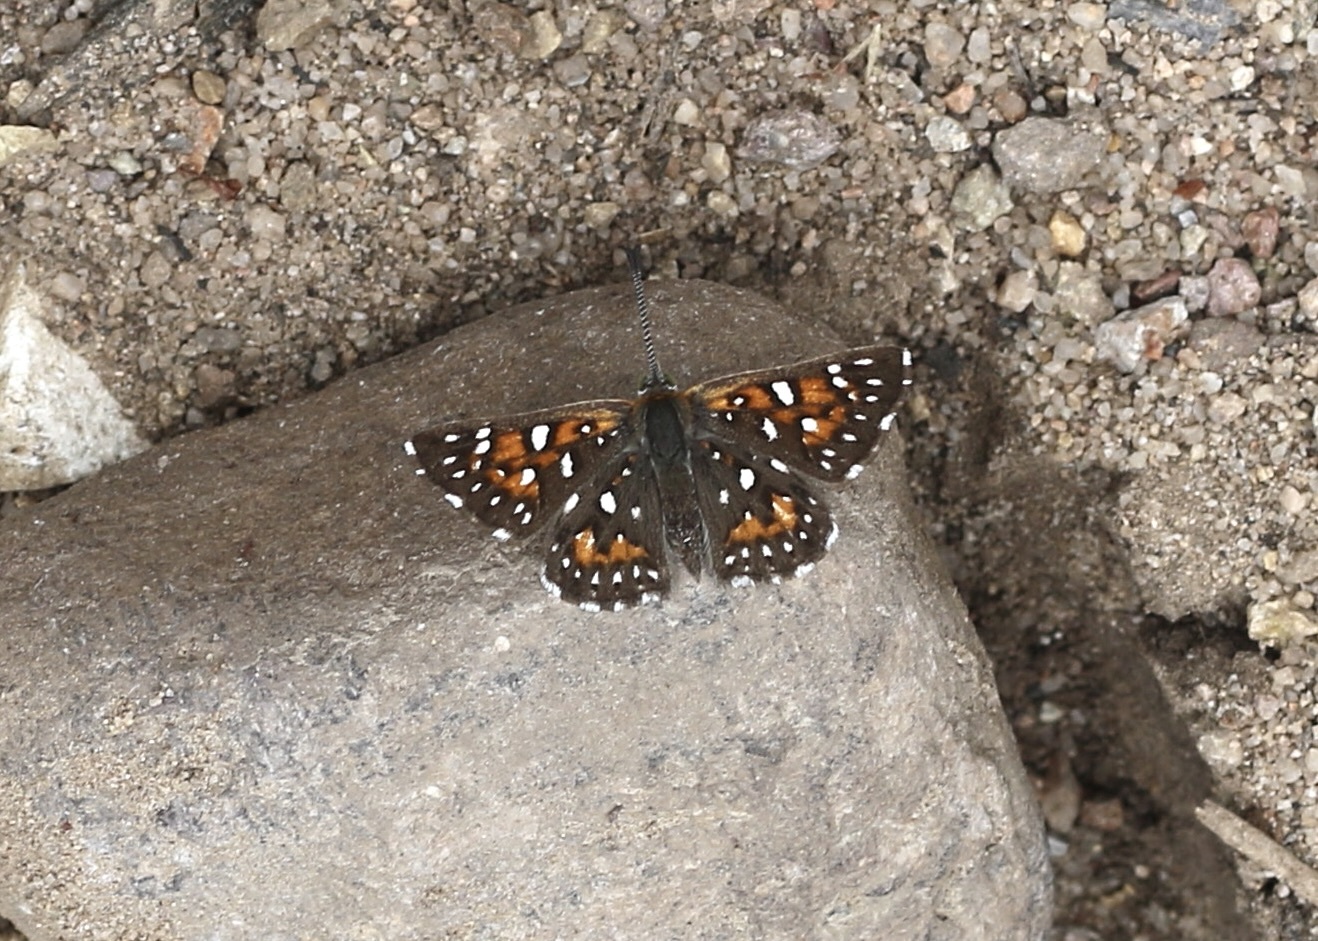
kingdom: Animalia
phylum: Arthropoda
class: Insecta
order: Lepidoptera
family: Riodinidae
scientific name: Riodinidae
